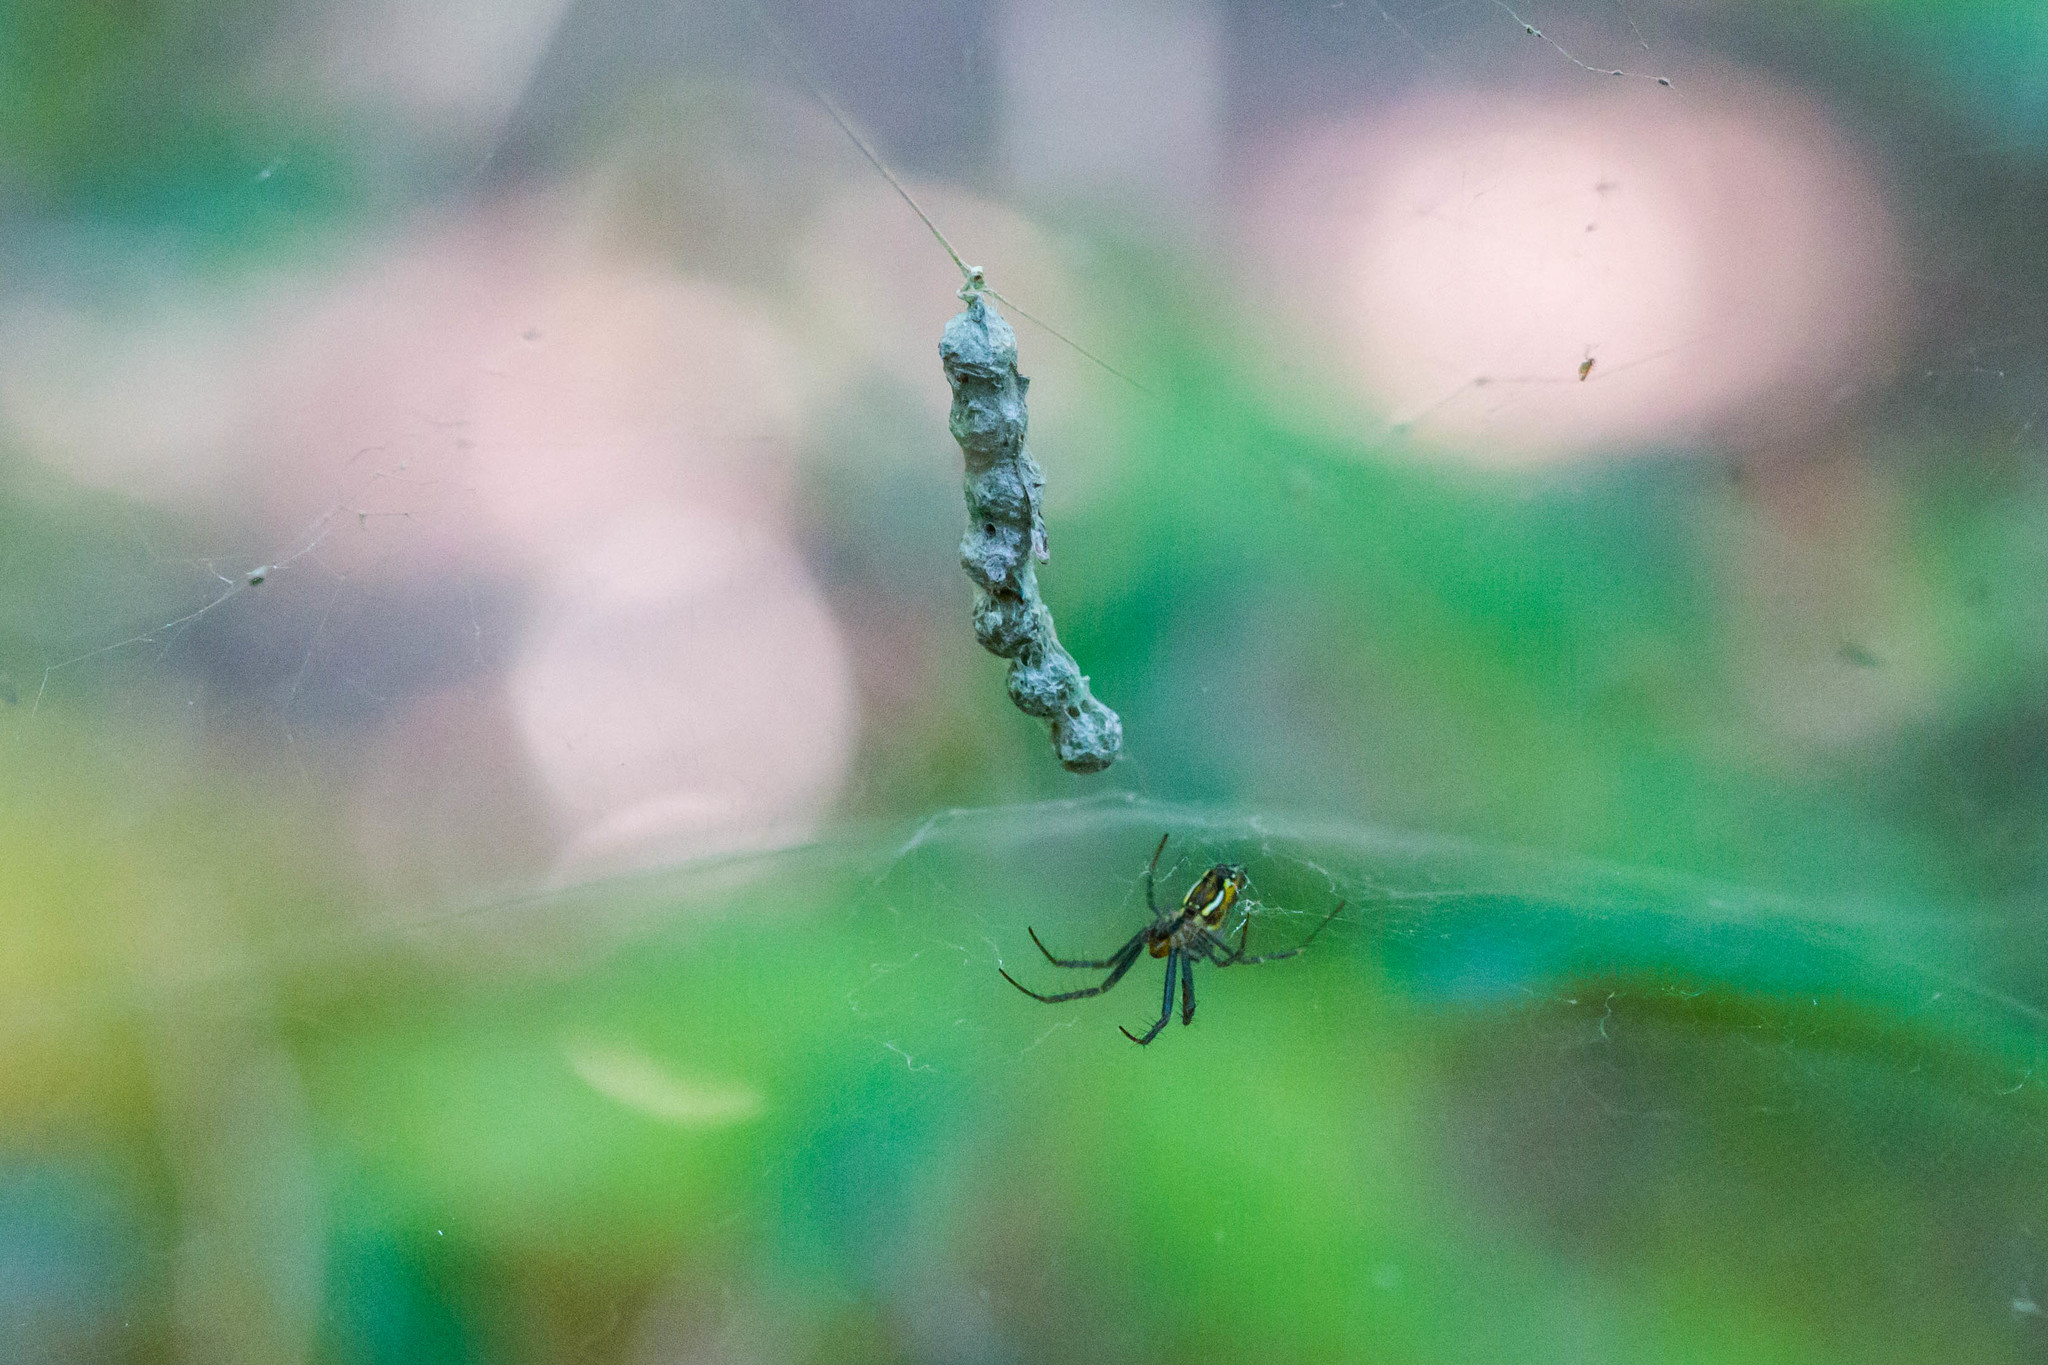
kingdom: Animalia
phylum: Arthropoda
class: Arachnida
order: Araneae
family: Araneidae
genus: Mecynogea
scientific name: Mecynogea lemniscata
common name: Orb weavers
